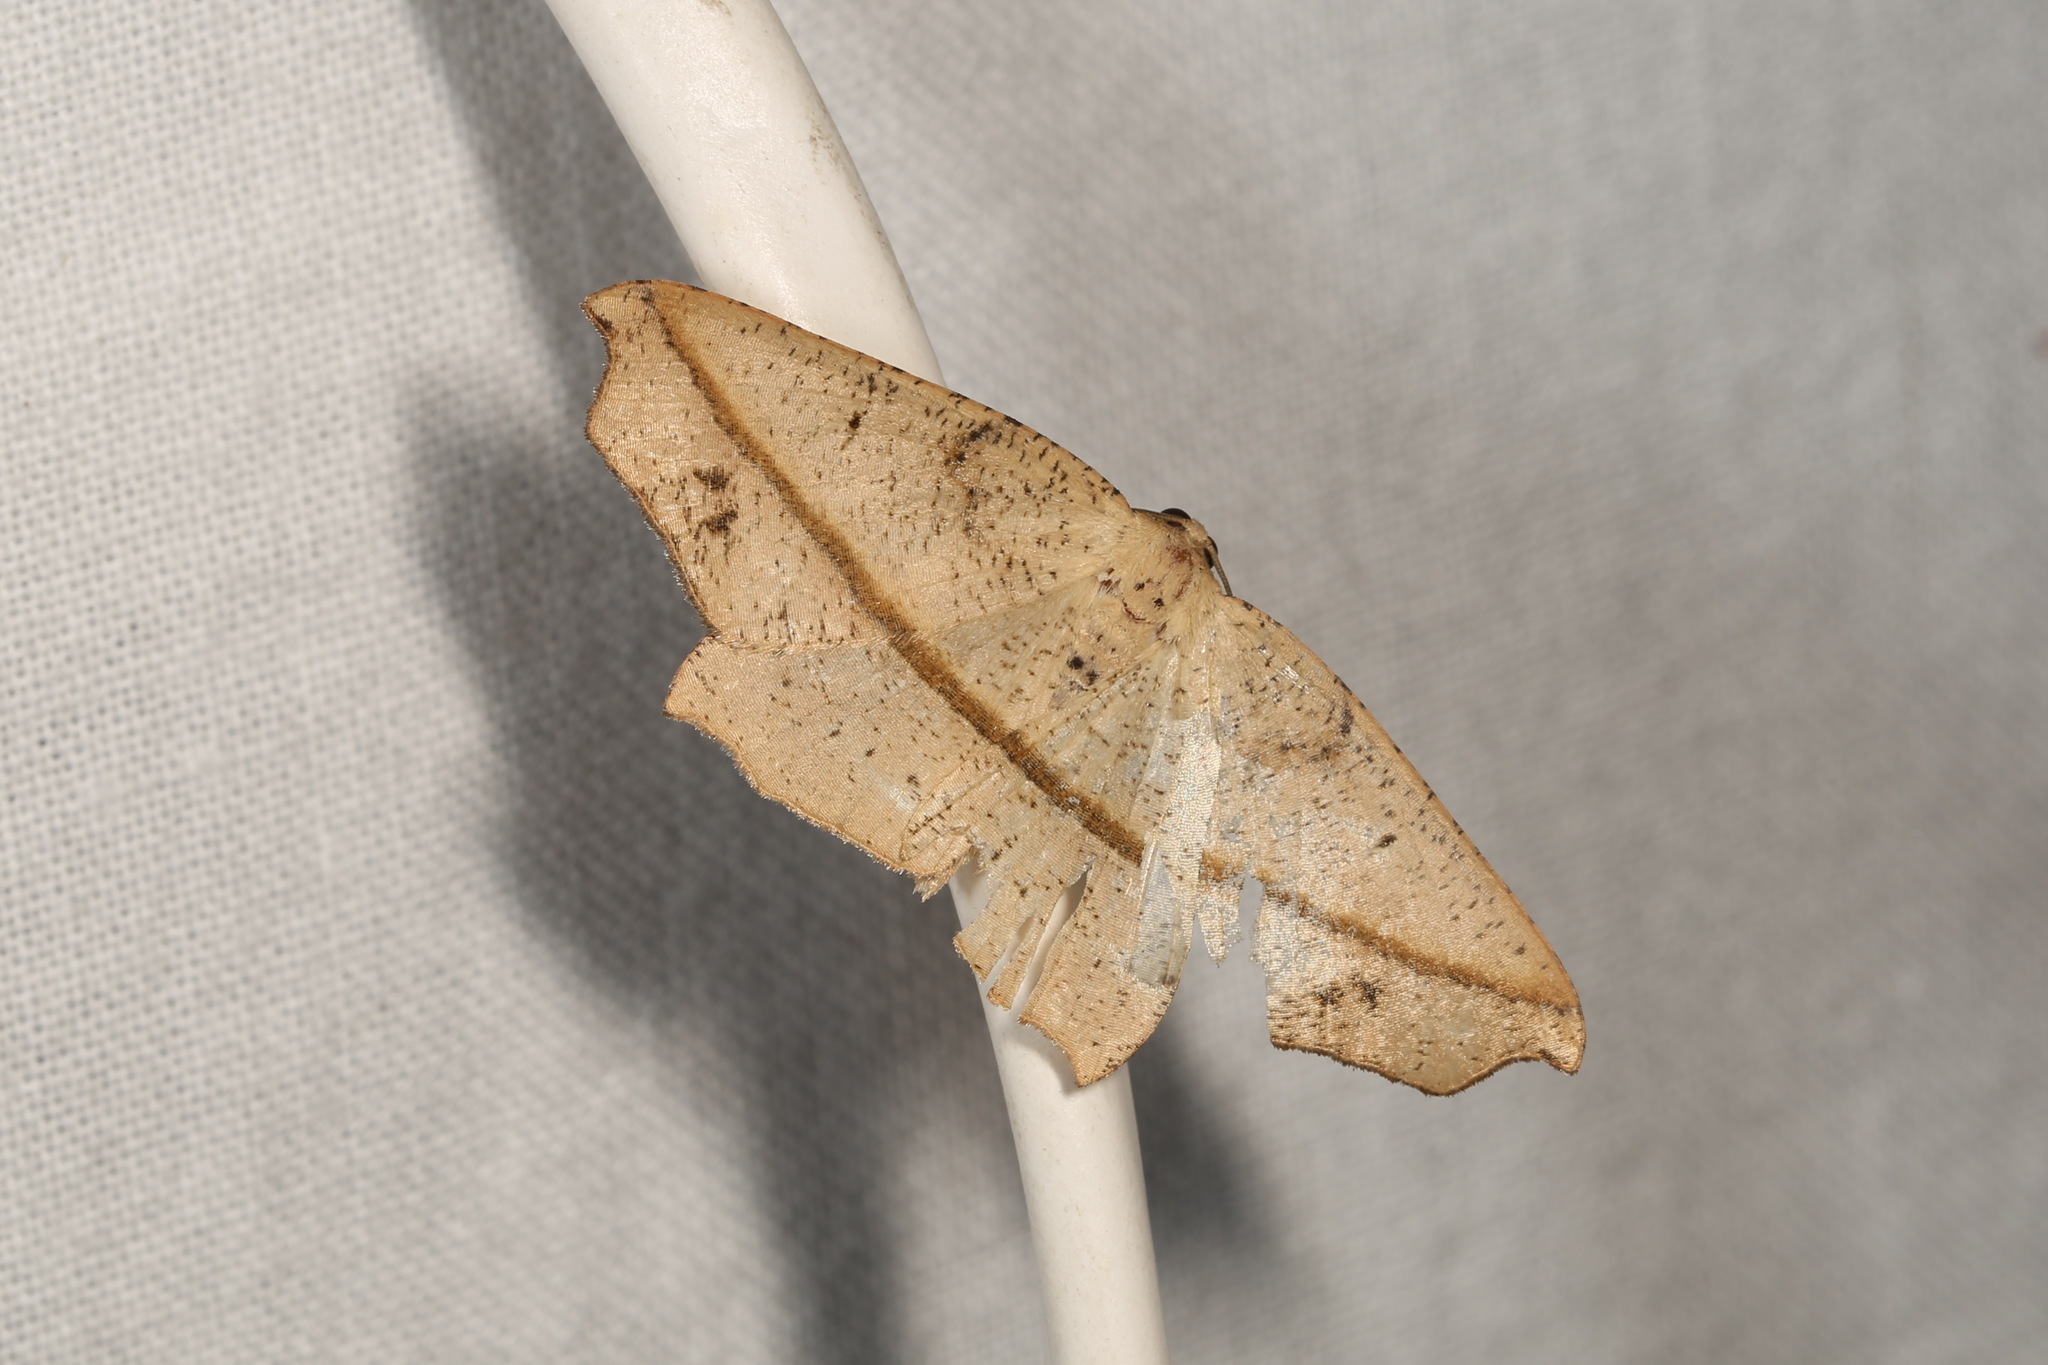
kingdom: Animalia
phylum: Arthropoda
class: Insecta
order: Lepidoptera
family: Geometridae
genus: Picrophylla
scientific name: Picrophylla hyleora
